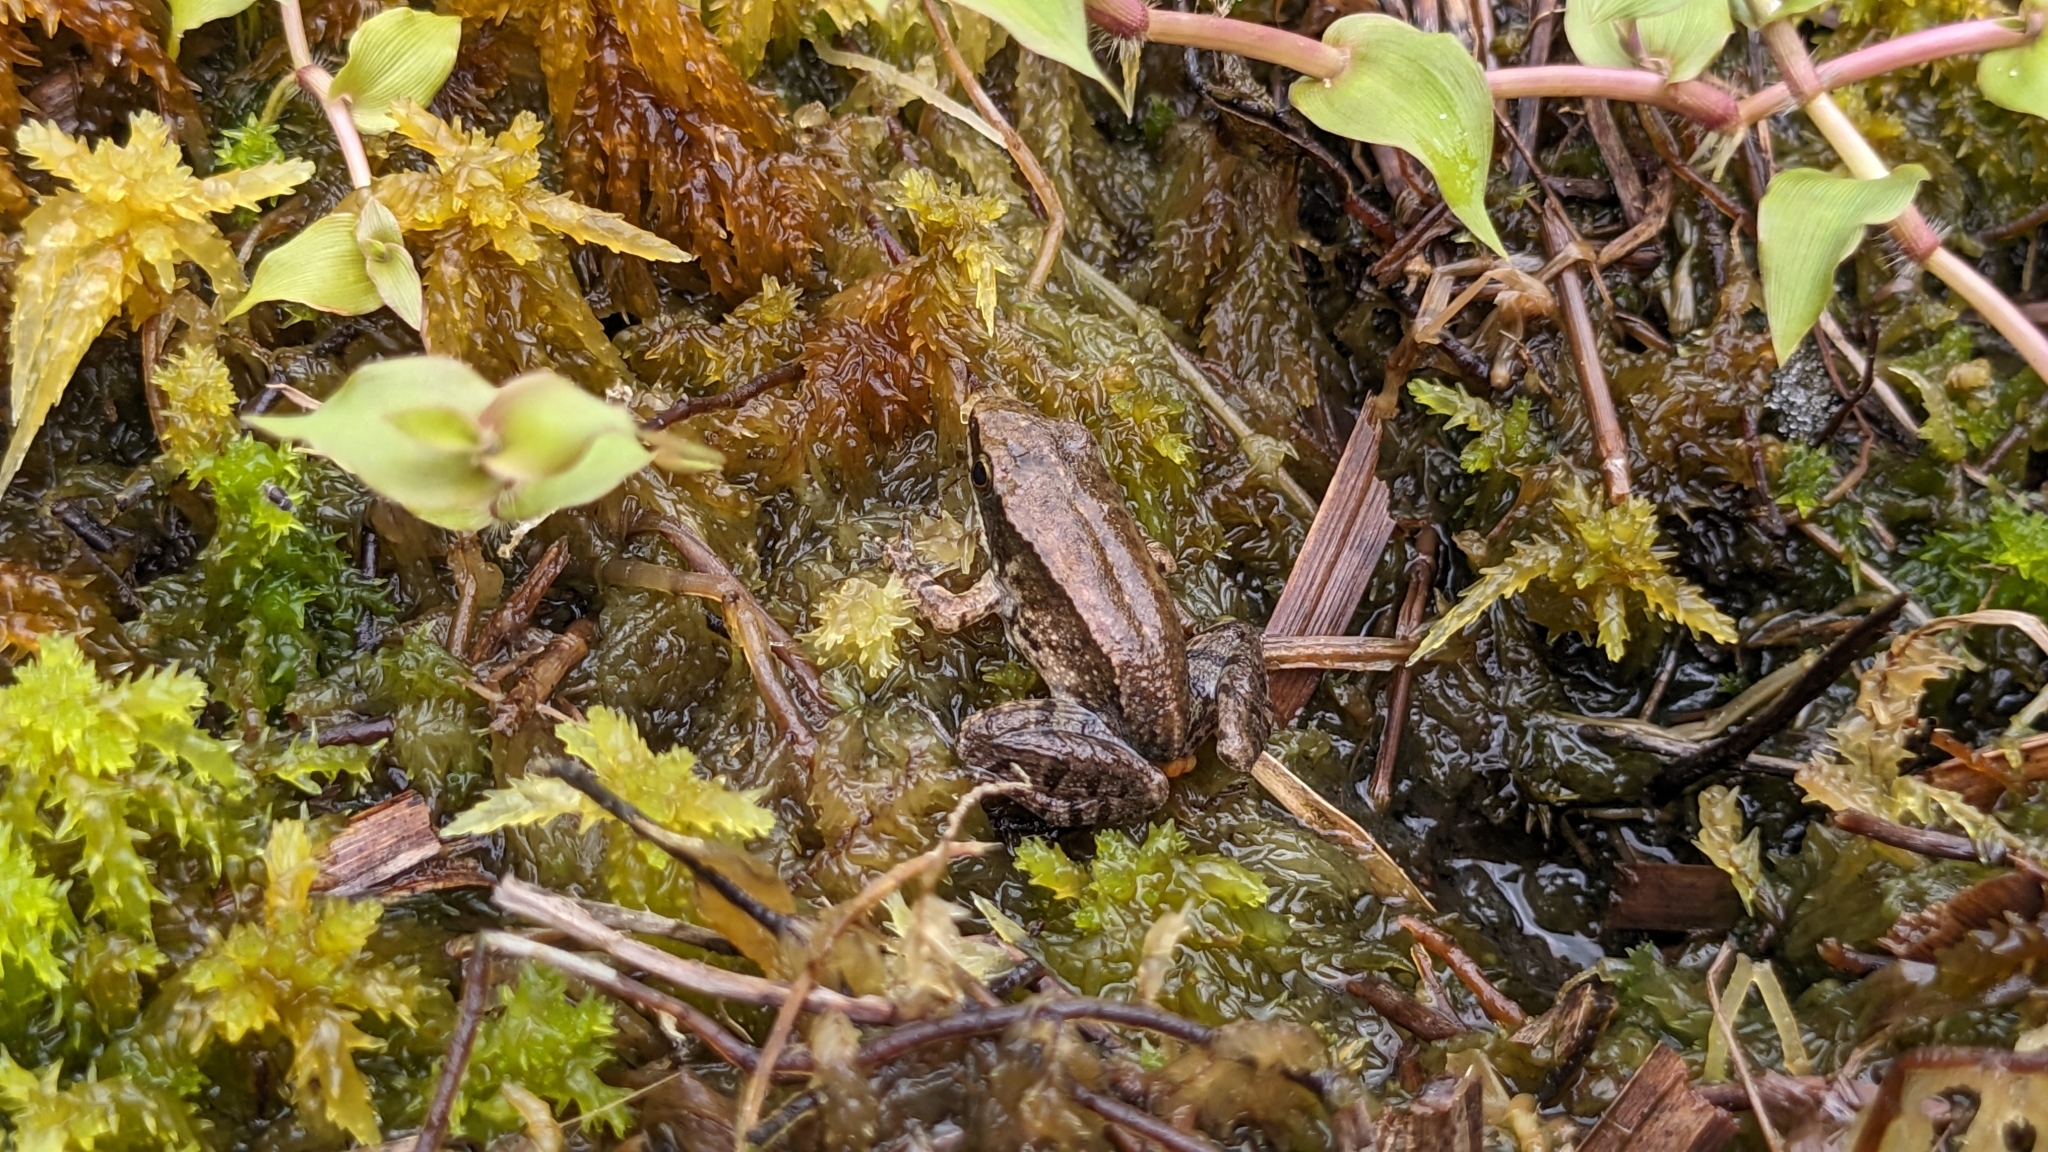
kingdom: Animalia
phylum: Chordata
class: Amphibia
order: Anura
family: Ranidae
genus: Nidirana
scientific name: Nidirana adenopleura
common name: Olive frog
